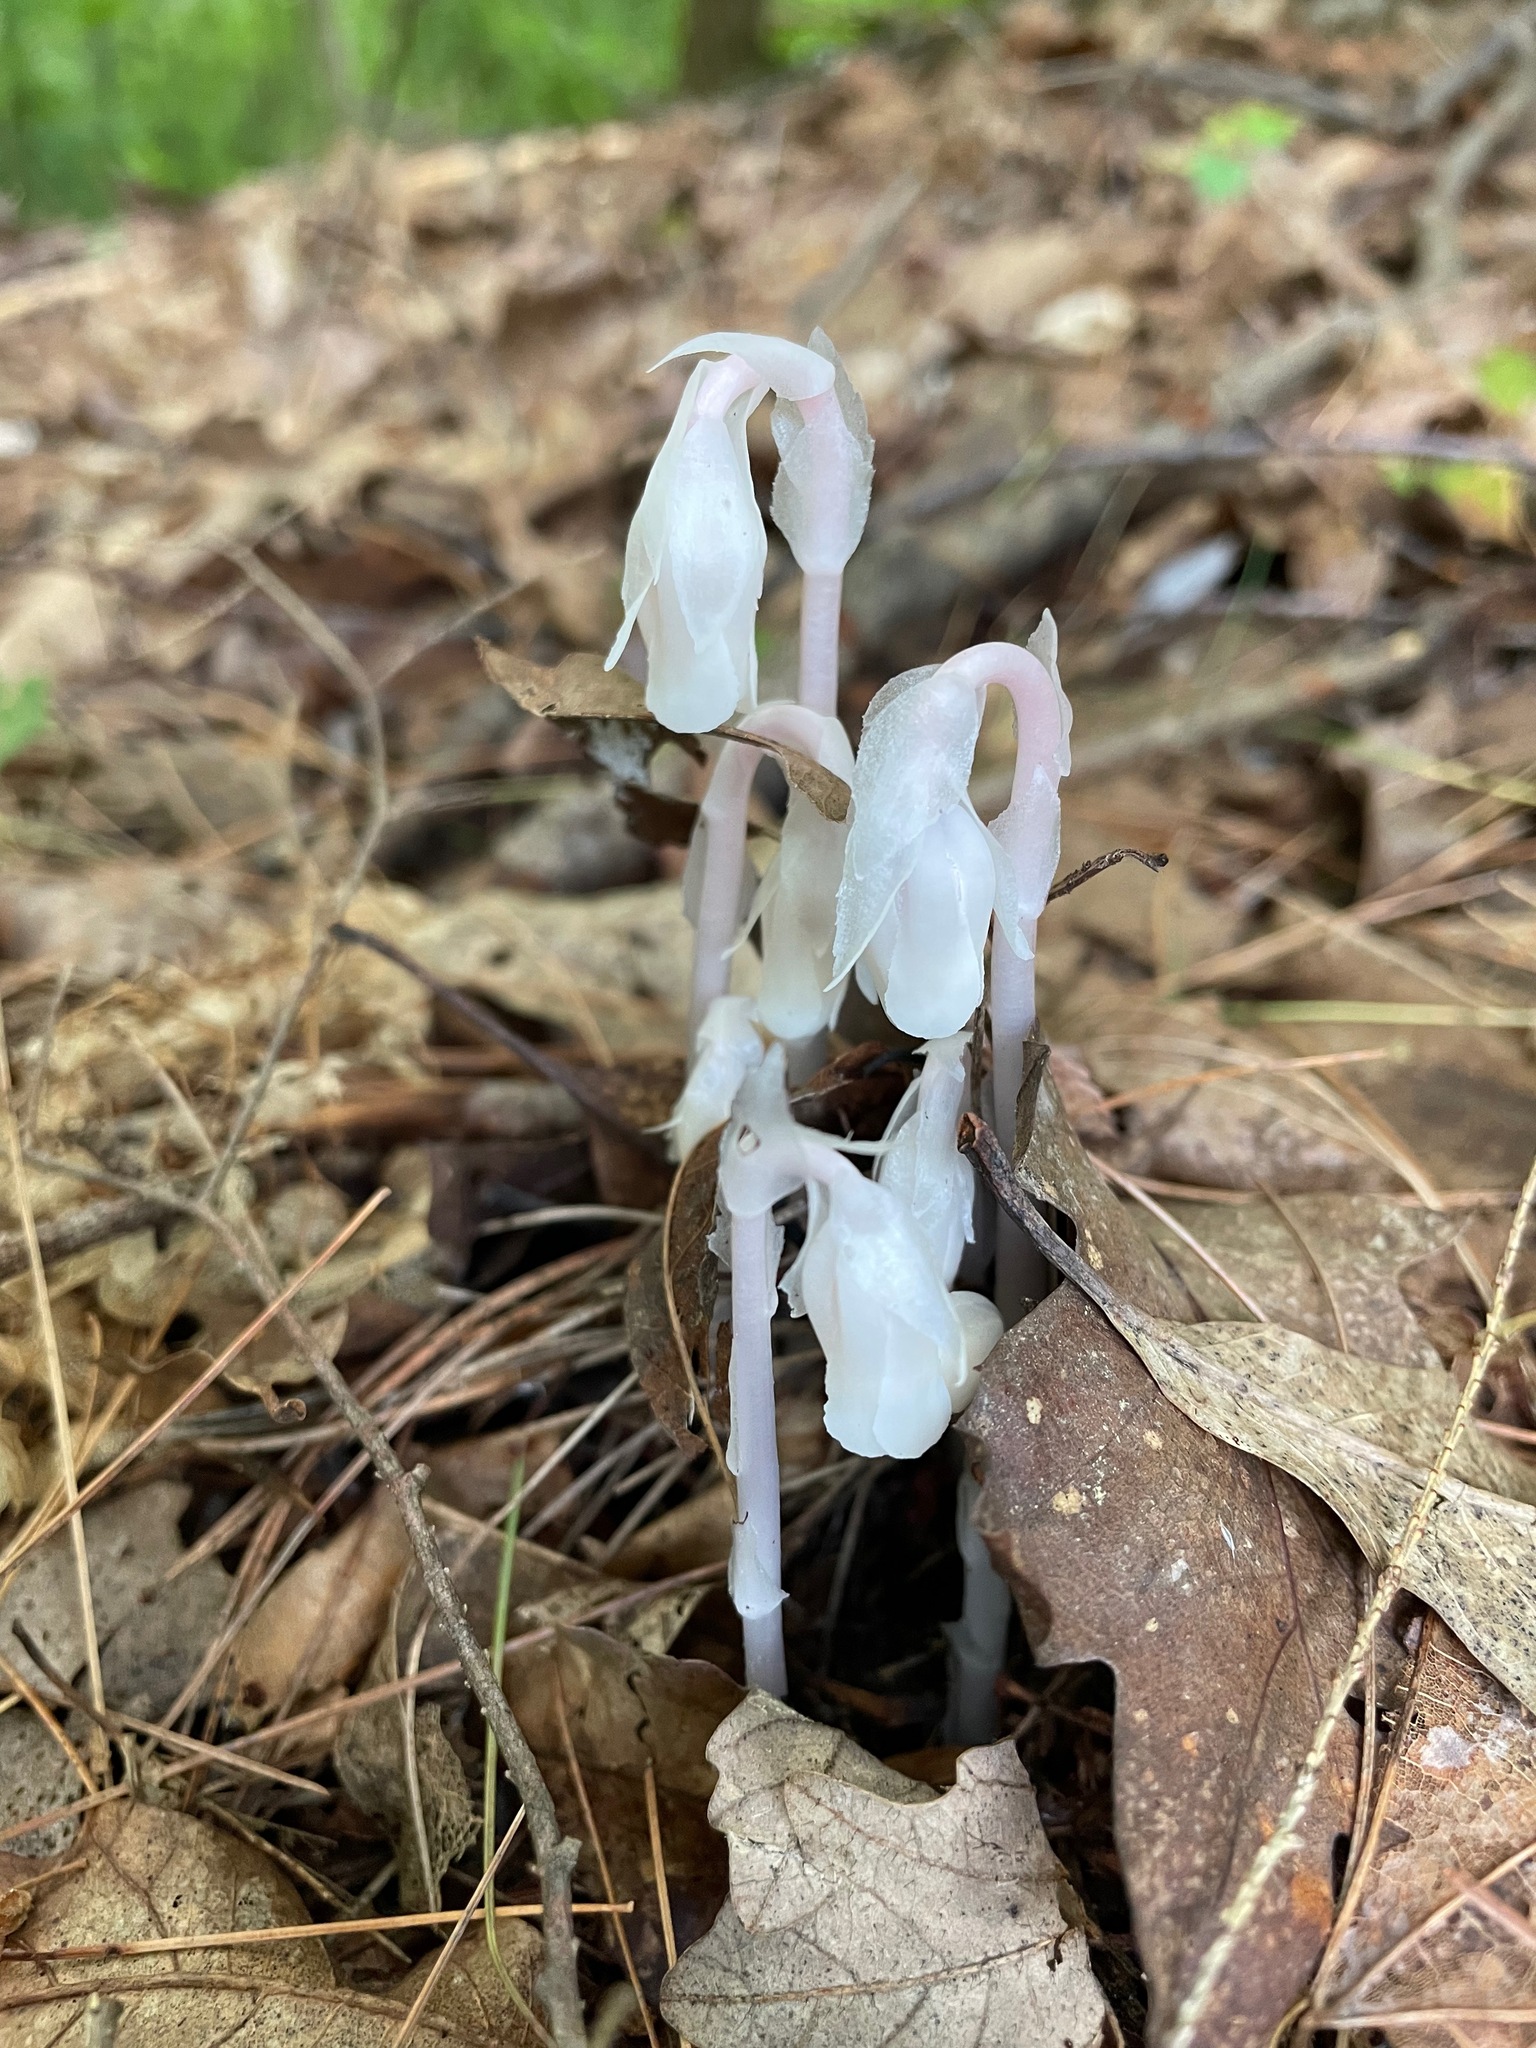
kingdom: Plantae
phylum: Tracheophyta
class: Magnoliopsida
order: Ericales
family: Ericaceae
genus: Monotropa
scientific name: Monotropa uniflora
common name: Convulsion root
